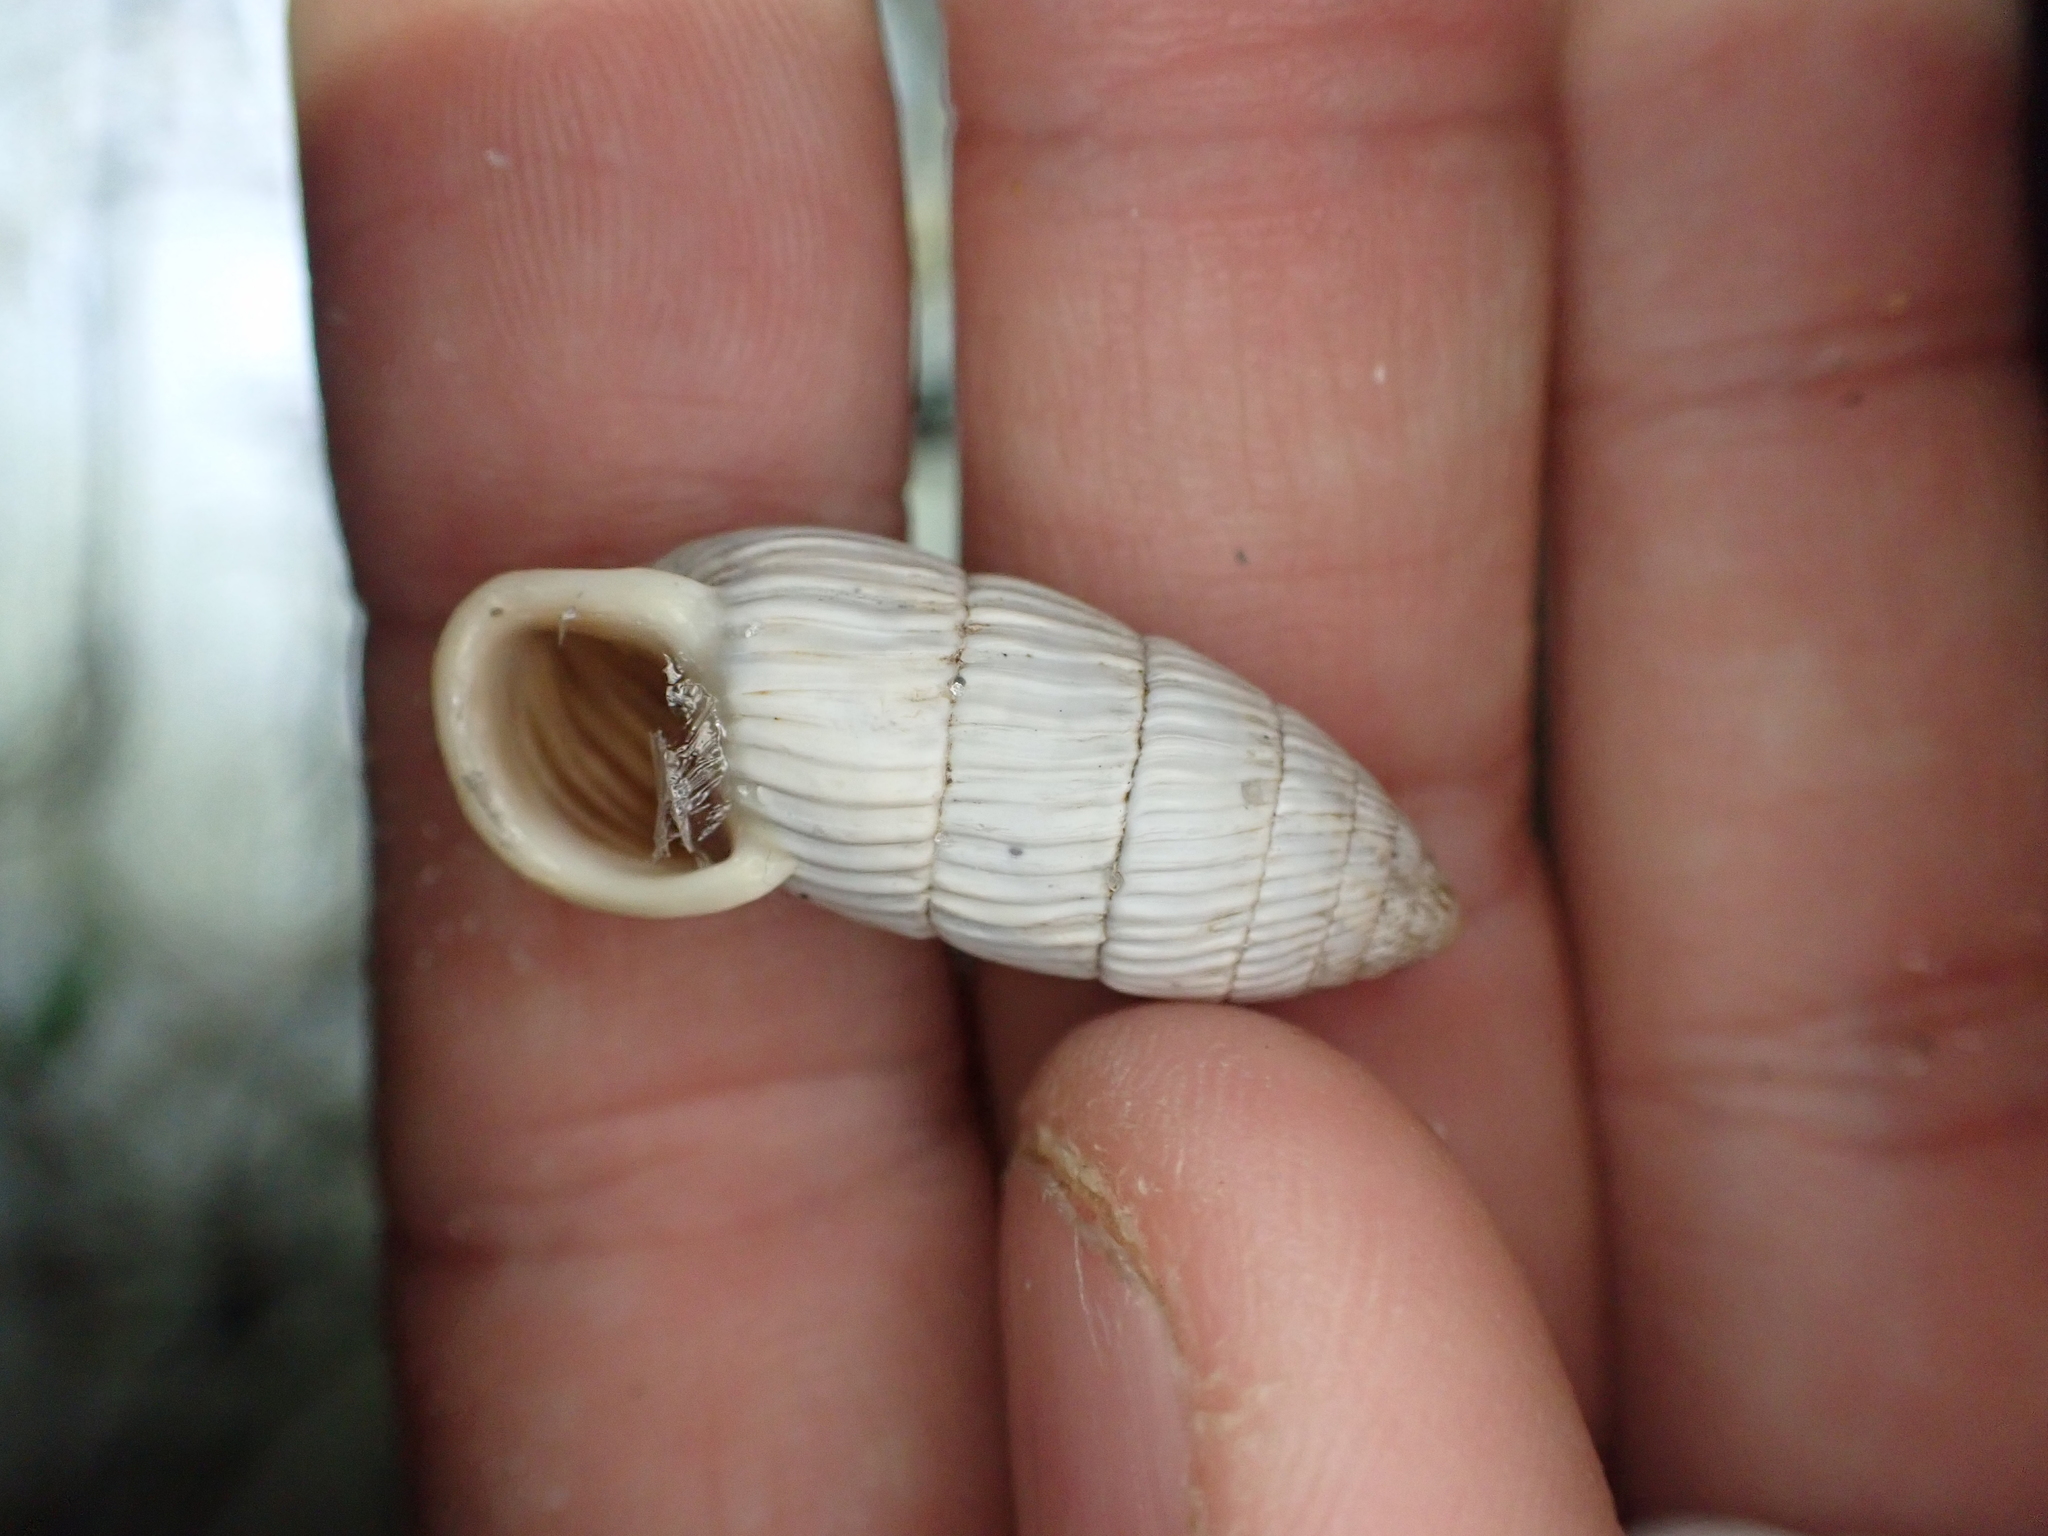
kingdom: Animalia
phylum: Mollusca
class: Gastropoda
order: Stylommatophora
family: Cerionidae
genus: Cerion
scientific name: Cerion tridentatum
